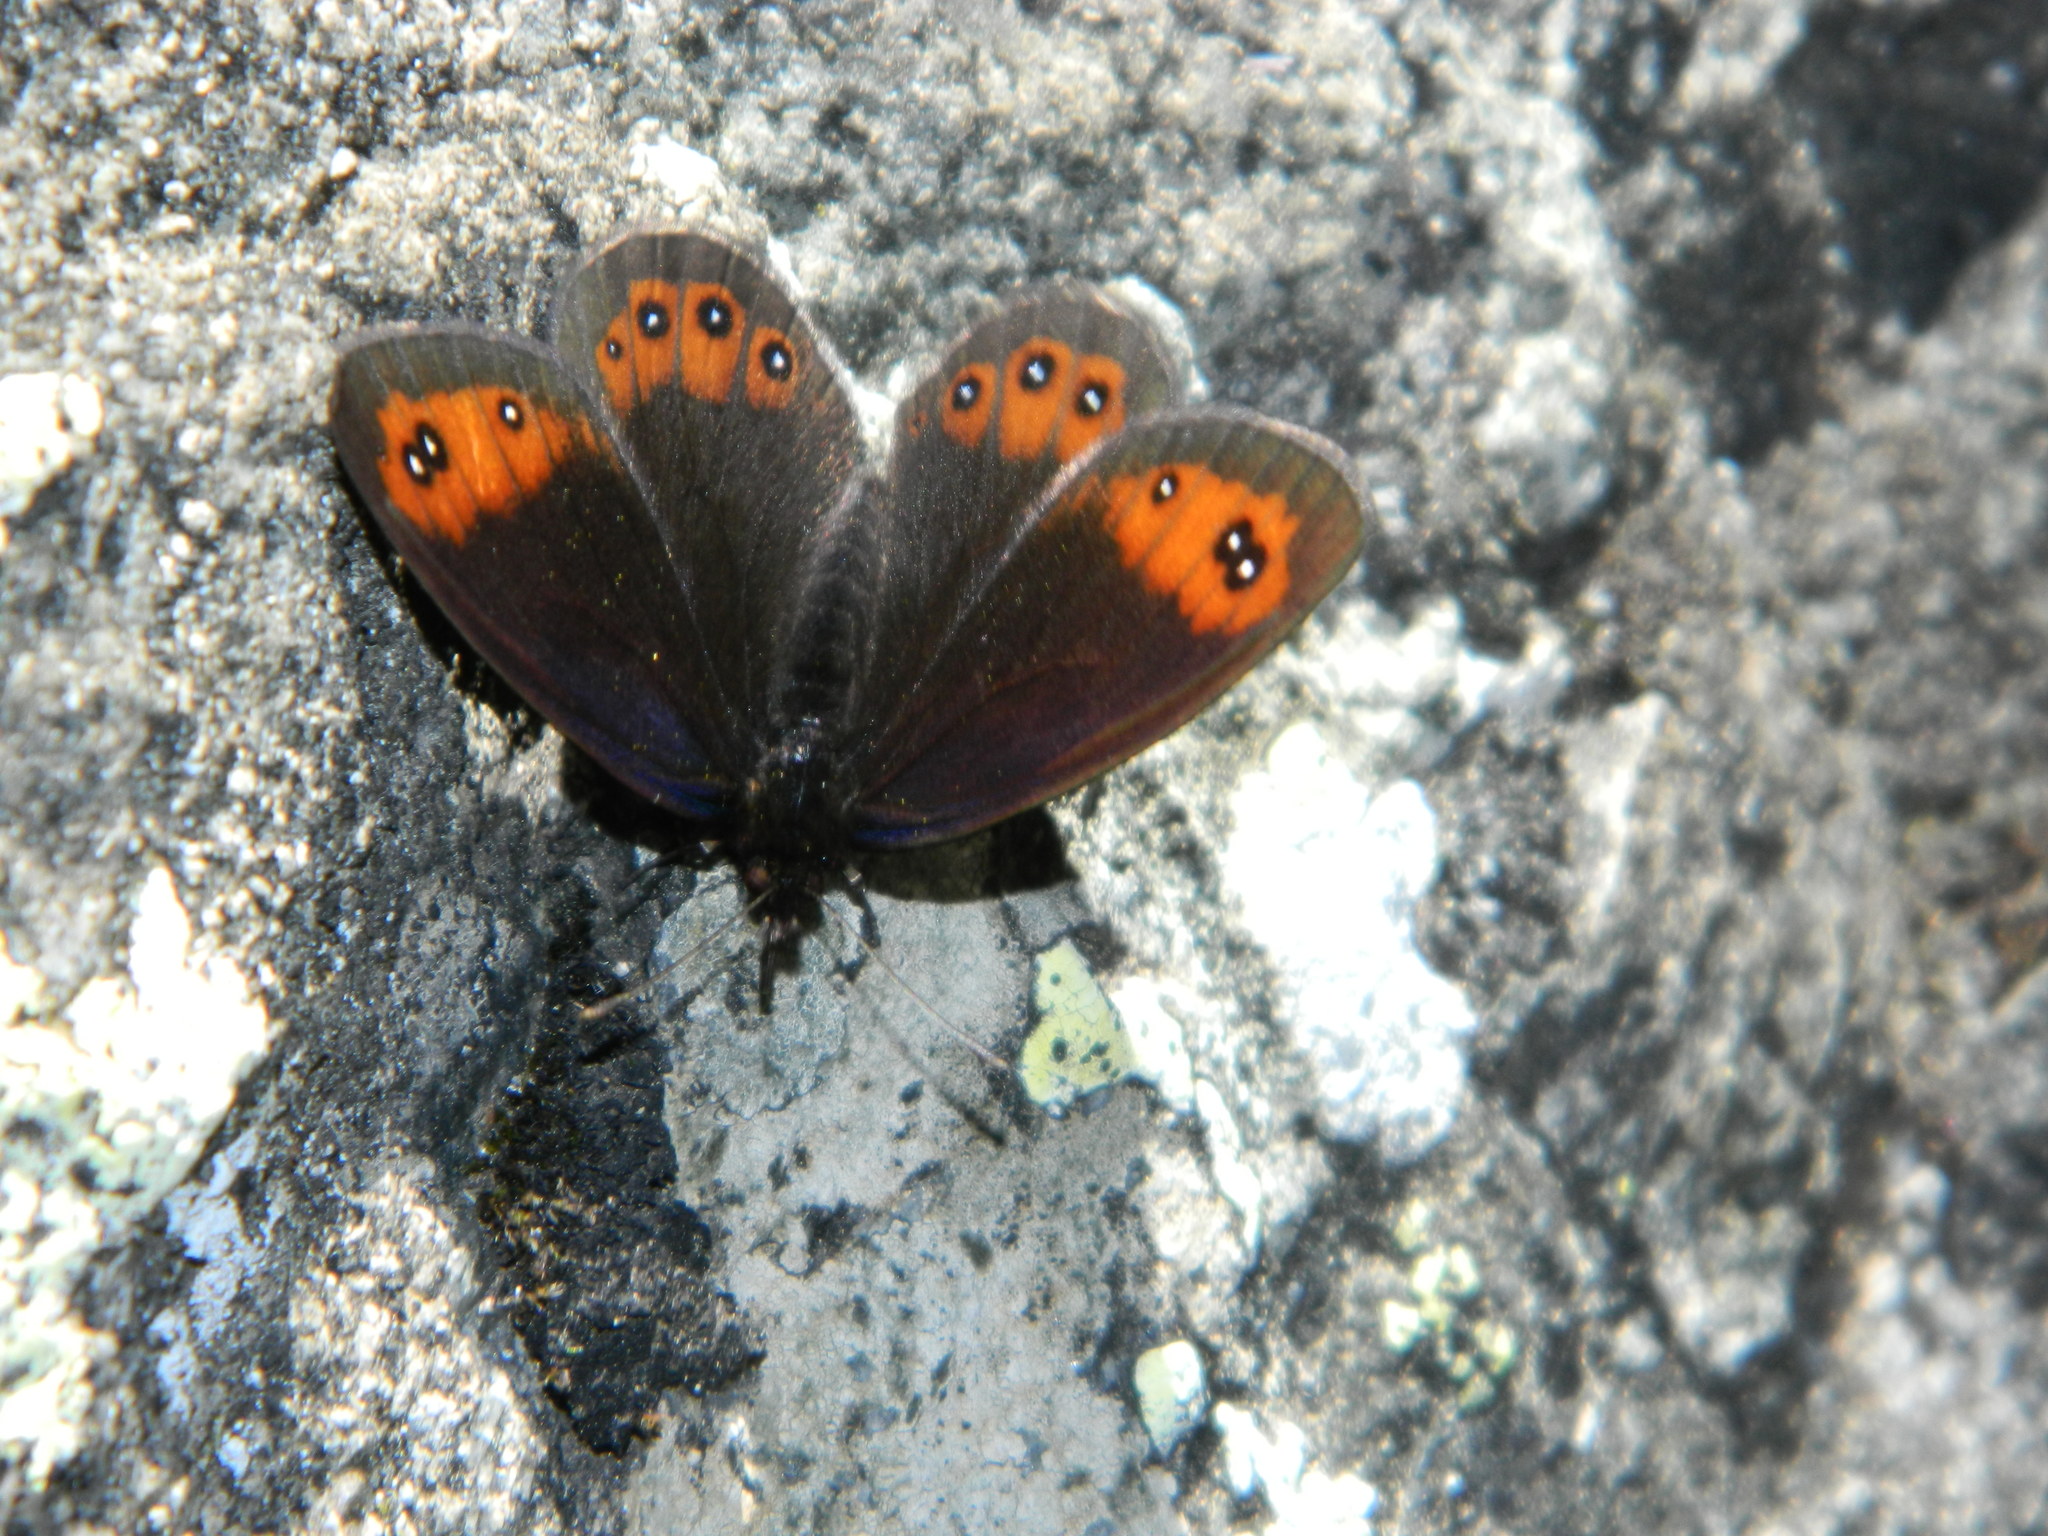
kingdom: Animalia
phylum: Arthropoda
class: Insecta
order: Lepidoptera
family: Nymphalidae
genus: Erebia
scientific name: Erebia meolans
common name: Piedmont ringlet
